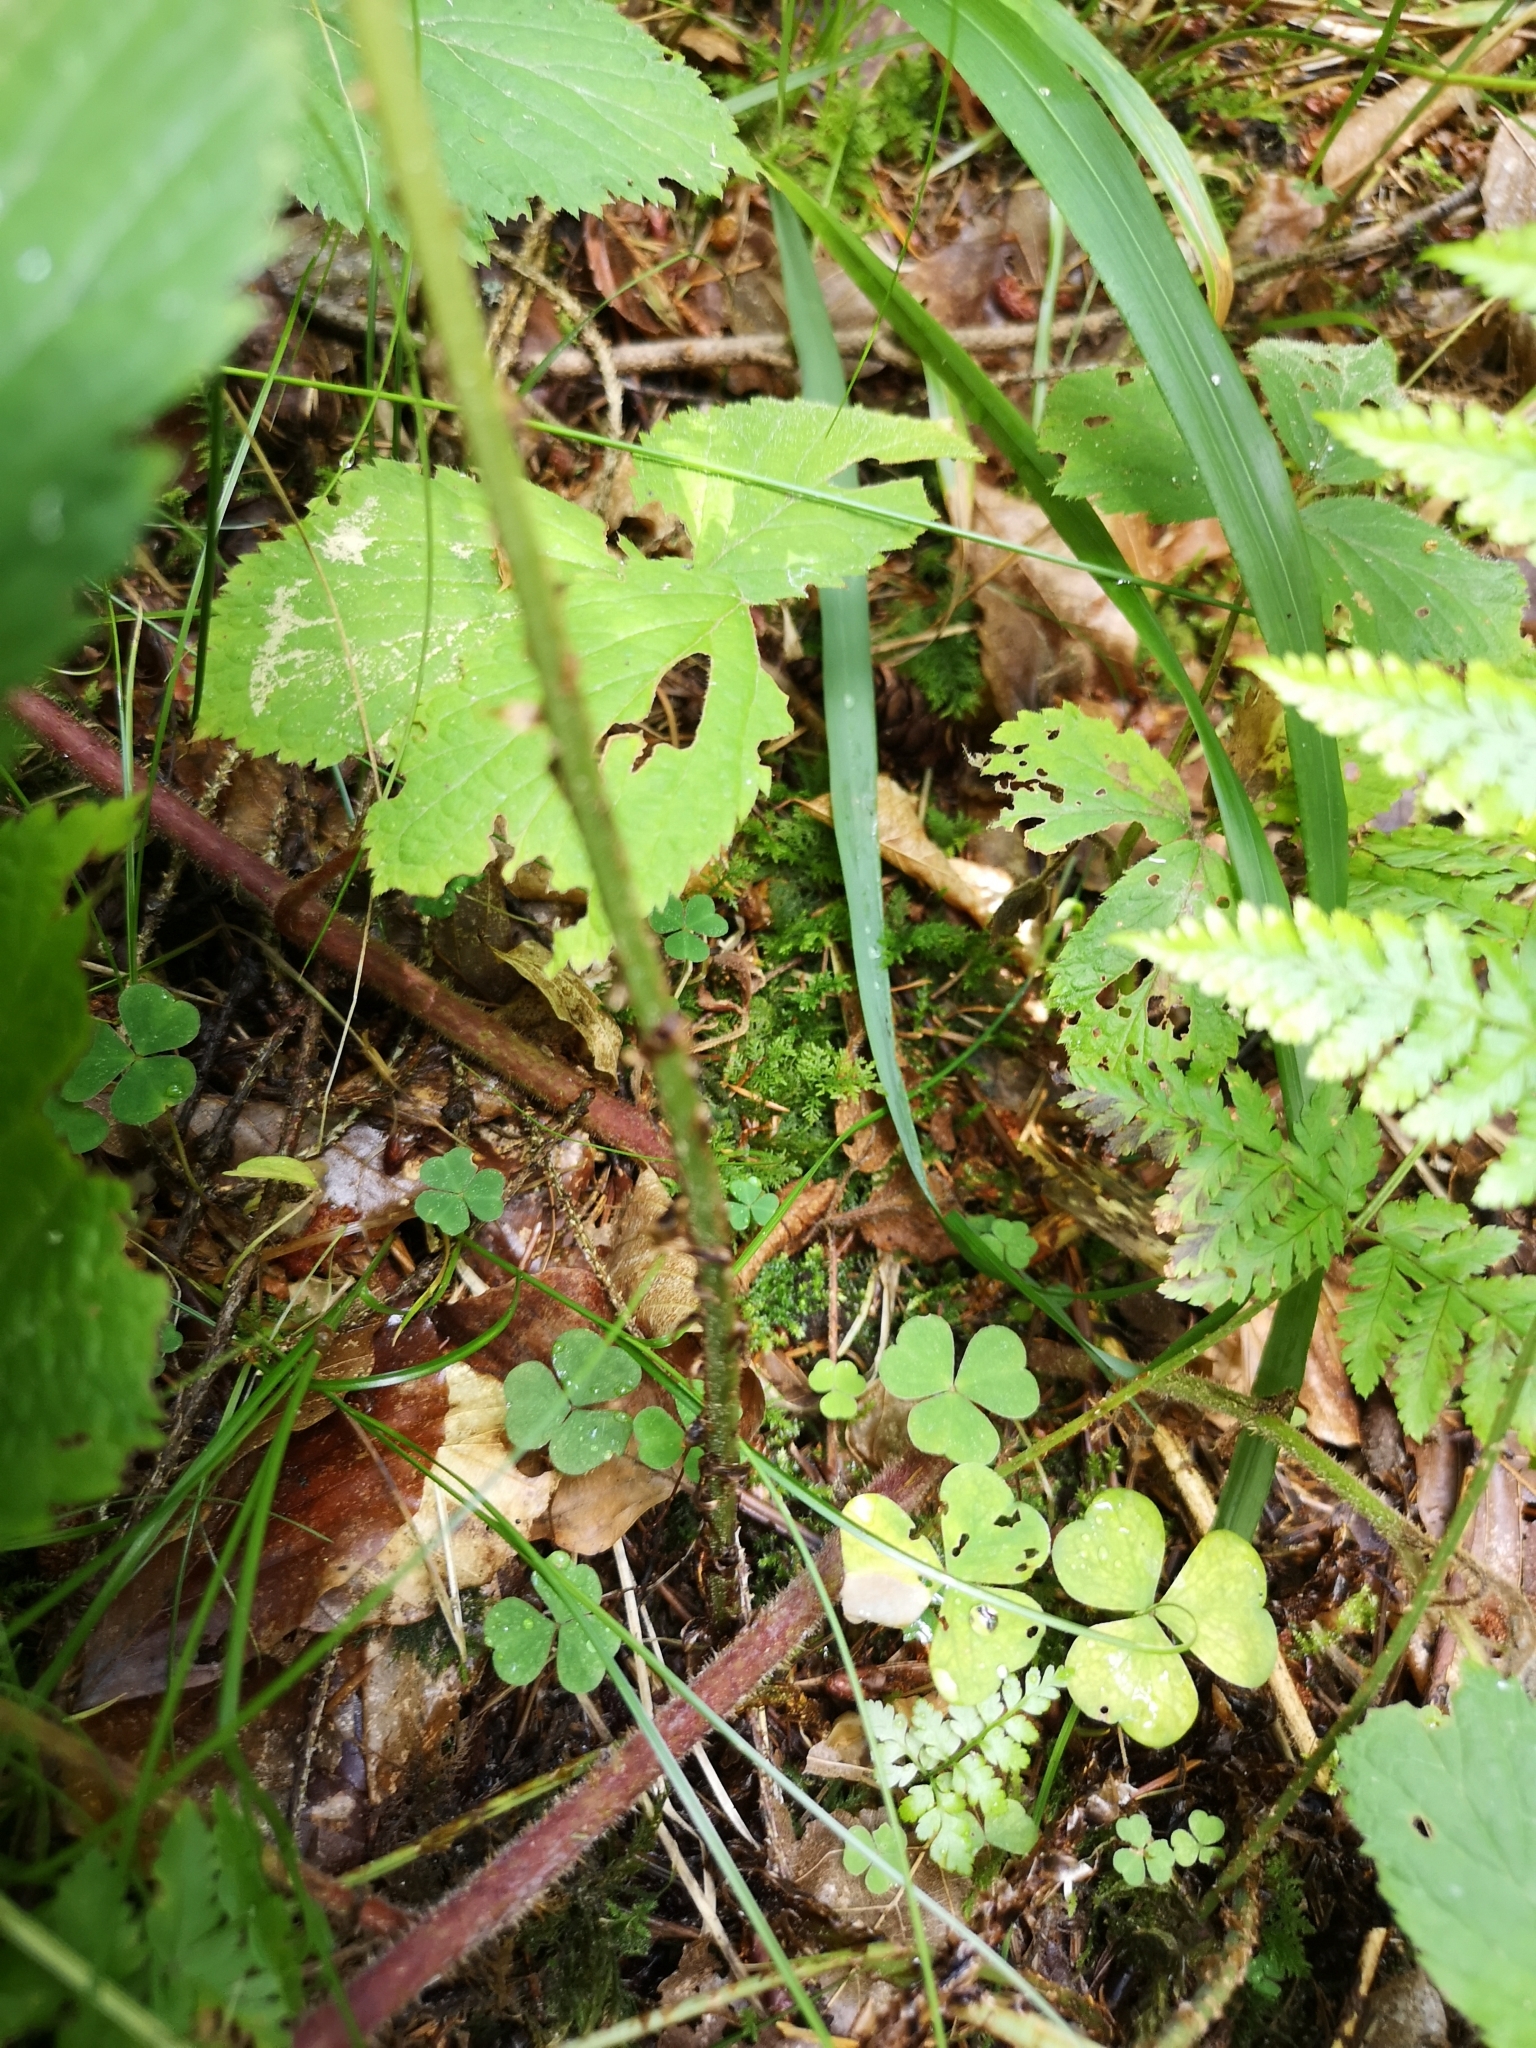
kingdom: Plantae
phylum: Tracheophyta
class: Polypodiopsida
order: Polypodiales
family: Dryopteridaceae
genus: Dryopteris
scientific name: Dryopteris dilatata
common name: Broad buckler-fern
